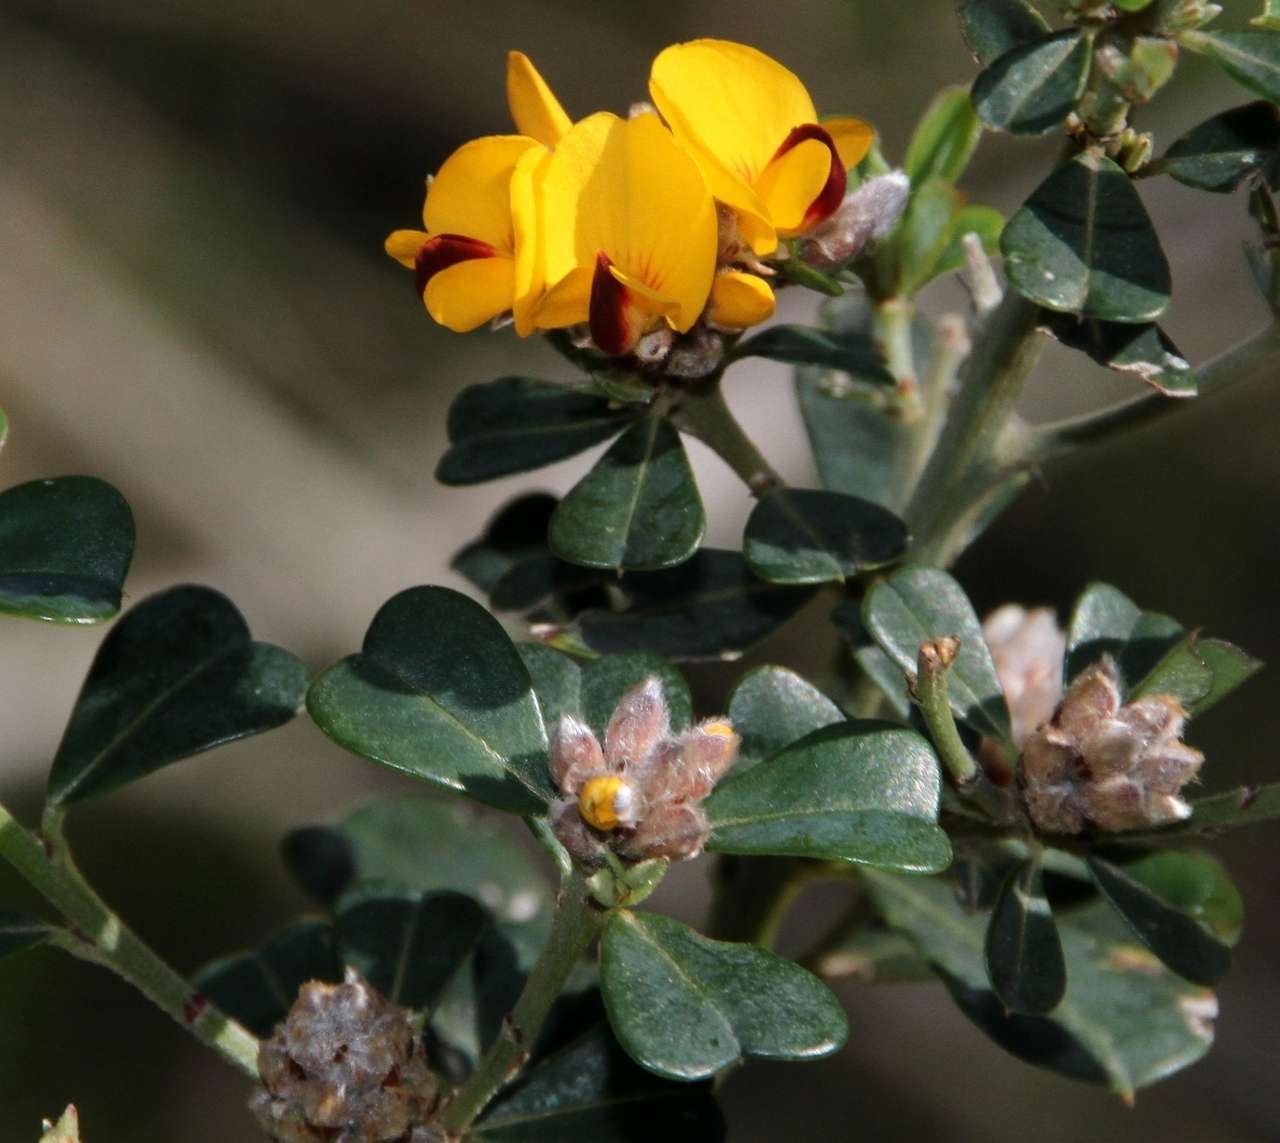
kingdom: Plantae
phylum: Tracheophyta
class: Magnoliopsida
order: Fabales
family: Fabaceae
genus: Pultenaea
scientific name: Pultenaea daphnoides
